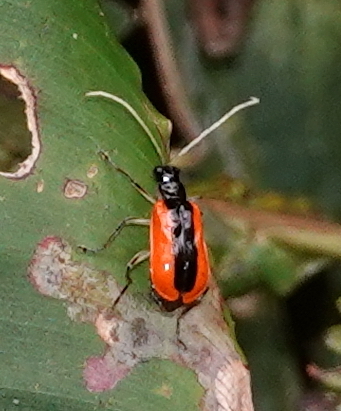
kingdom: Animalia
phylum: Arthropoda
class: Insecta
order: Coleoptera
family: Chrysomelidae
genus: Paratriarius
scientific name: Paratriarius tropica
